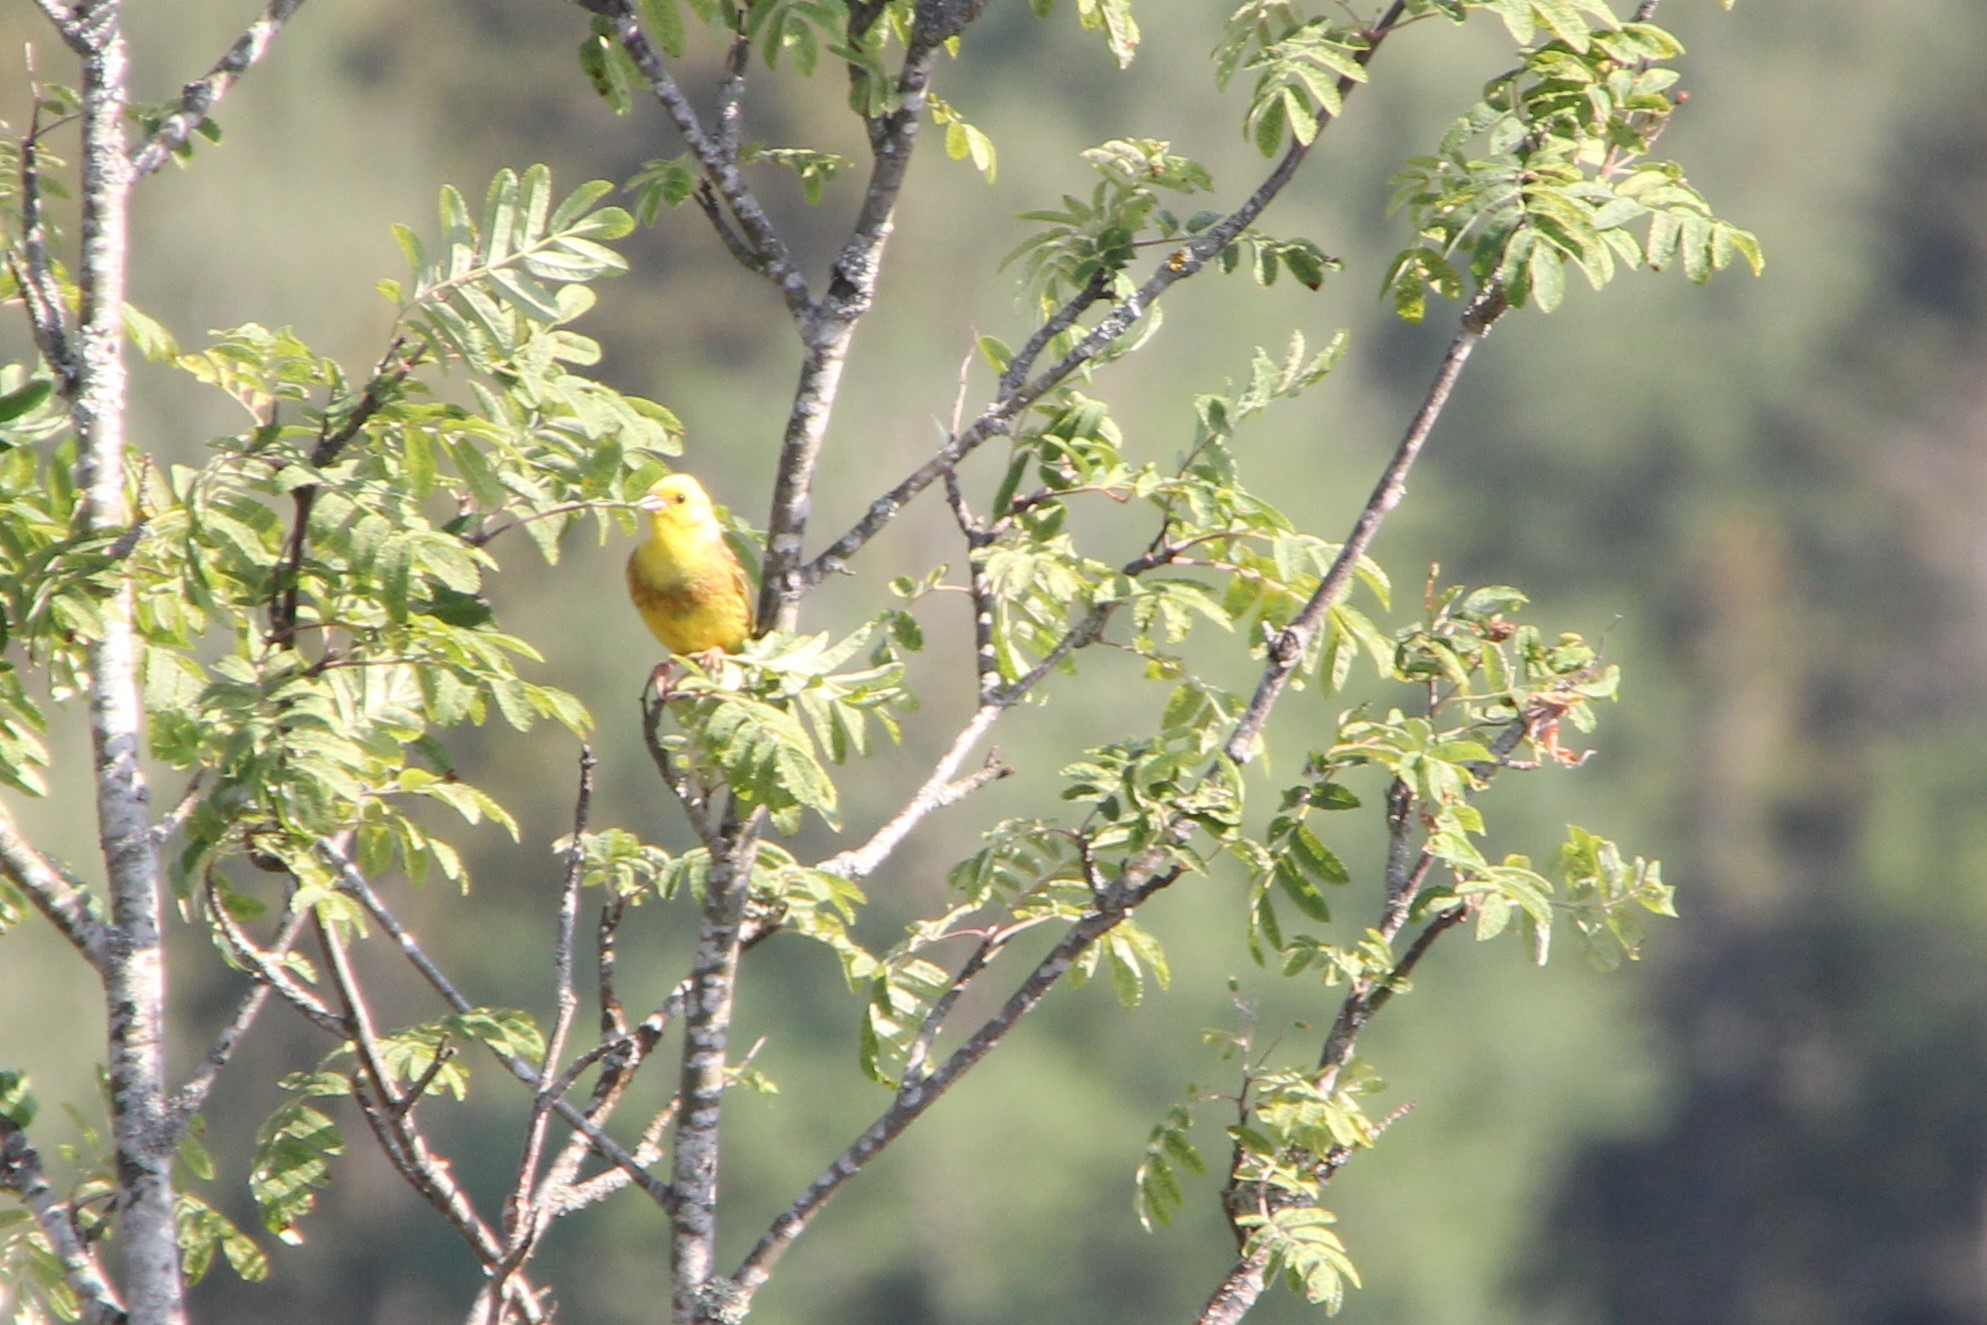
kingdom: Animalia
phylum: Chordata
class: Aves
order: Passeriformes
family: Emberizidae
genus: Emberiza
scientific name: Emberiza citrinella
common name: Yellowhammer
